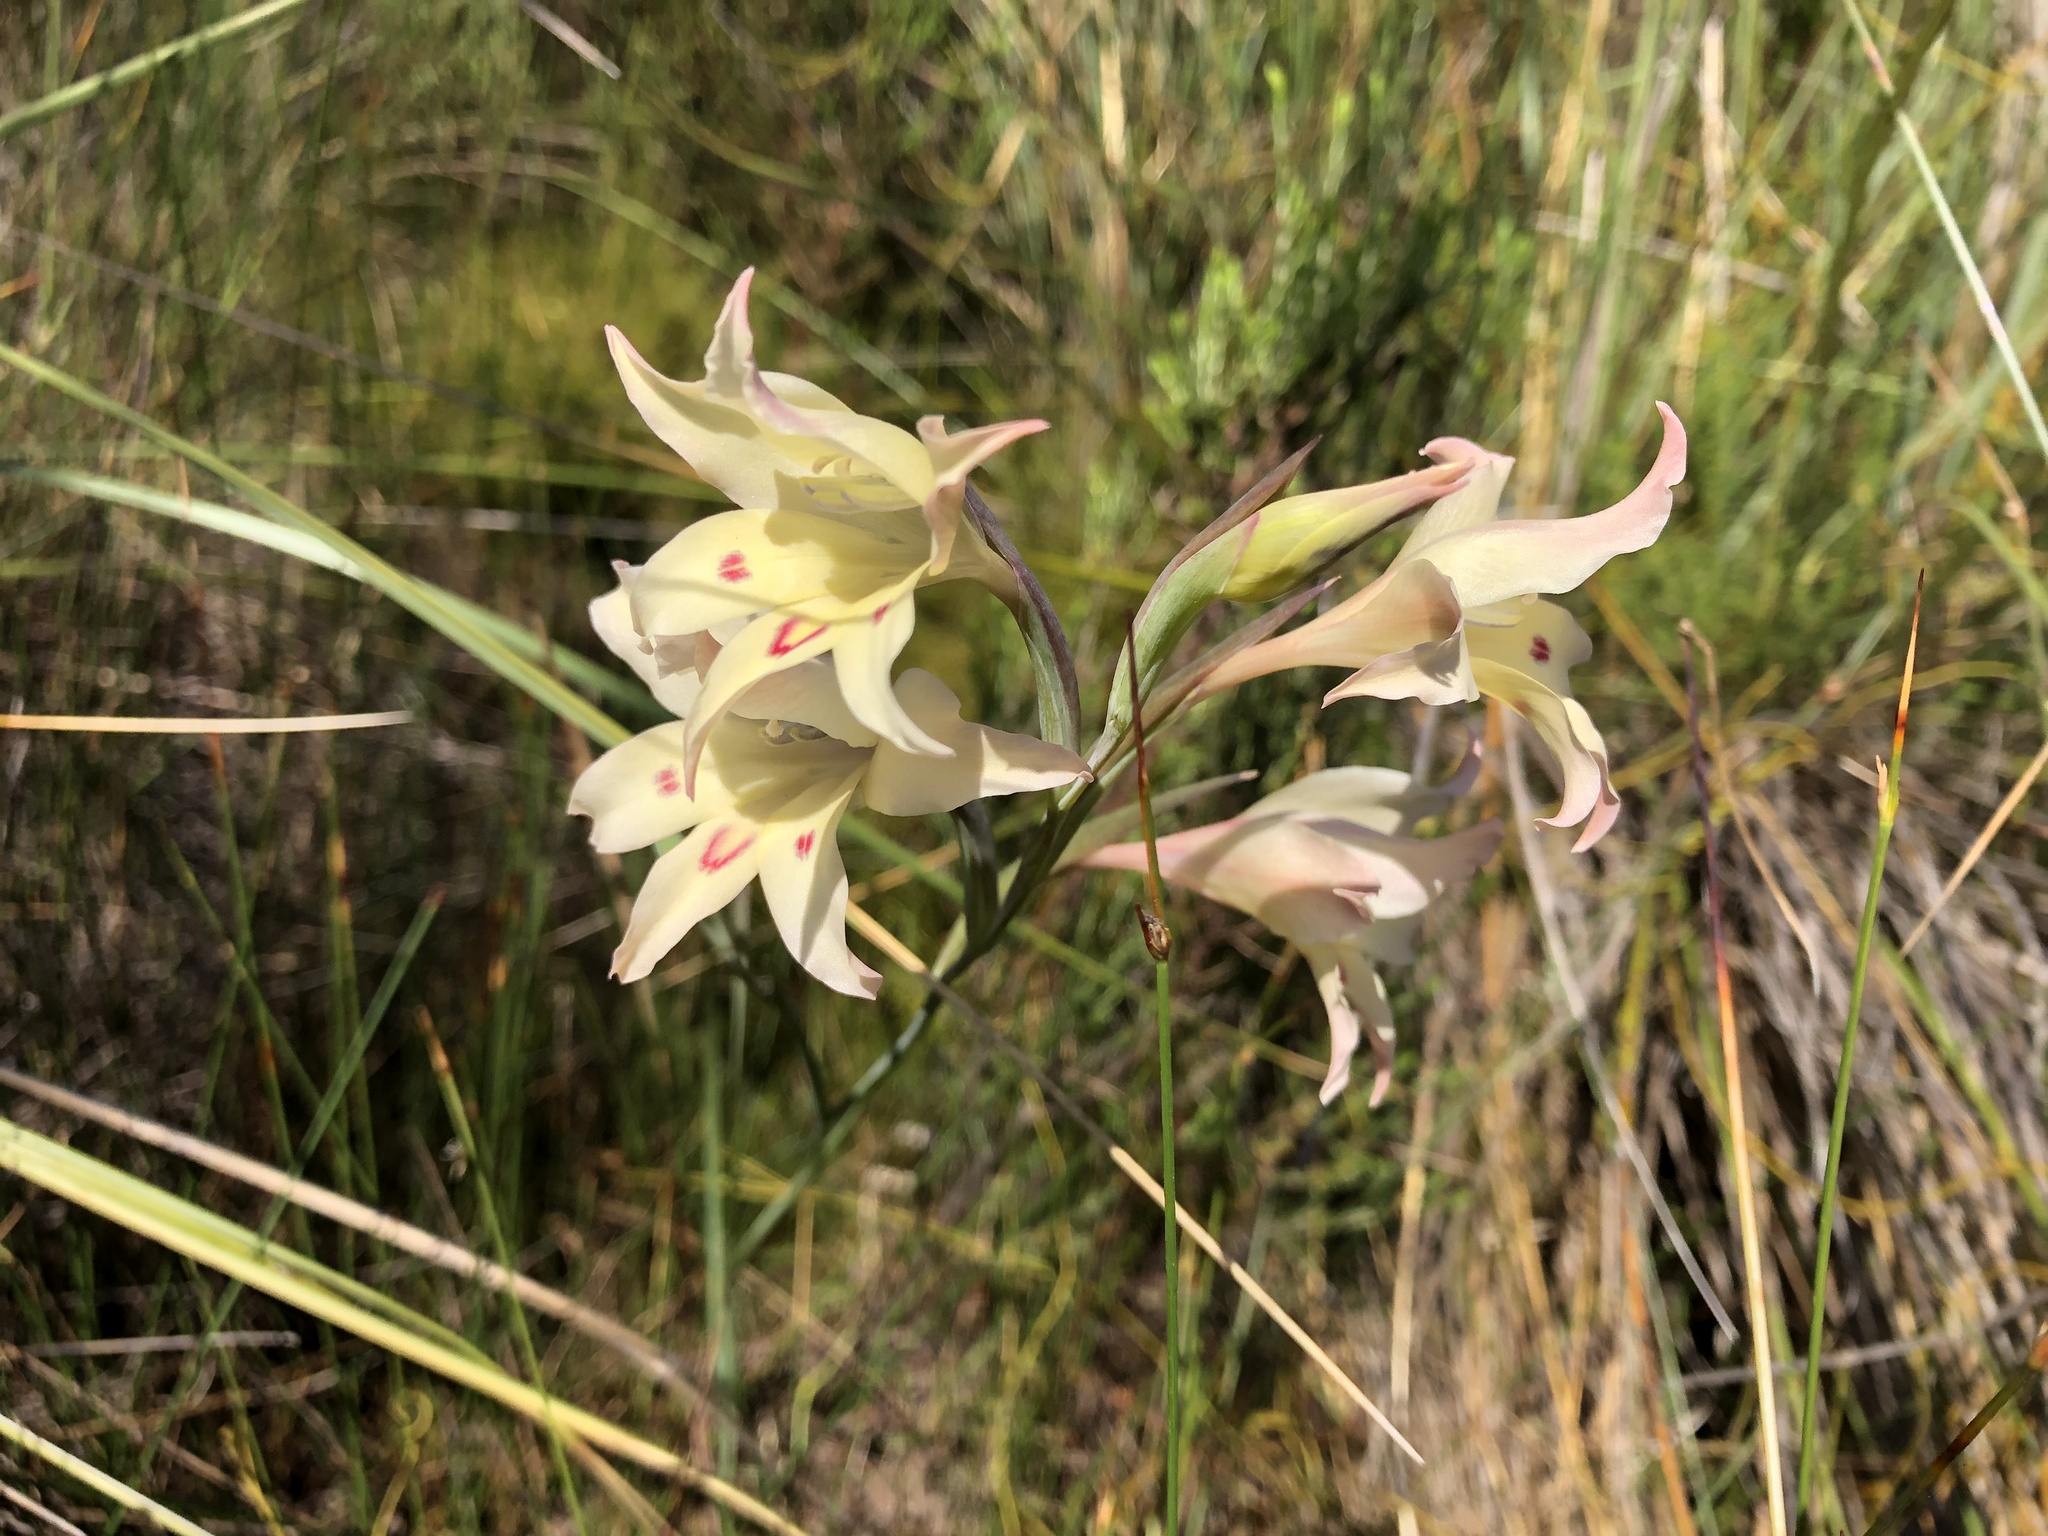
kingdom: Plantae
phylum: Tracheophyta
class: Liliopsida
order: Asparagales
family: Iridaceae
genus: Gladiolus
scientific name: Gladiolus undulatus
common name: Large painted-lady
